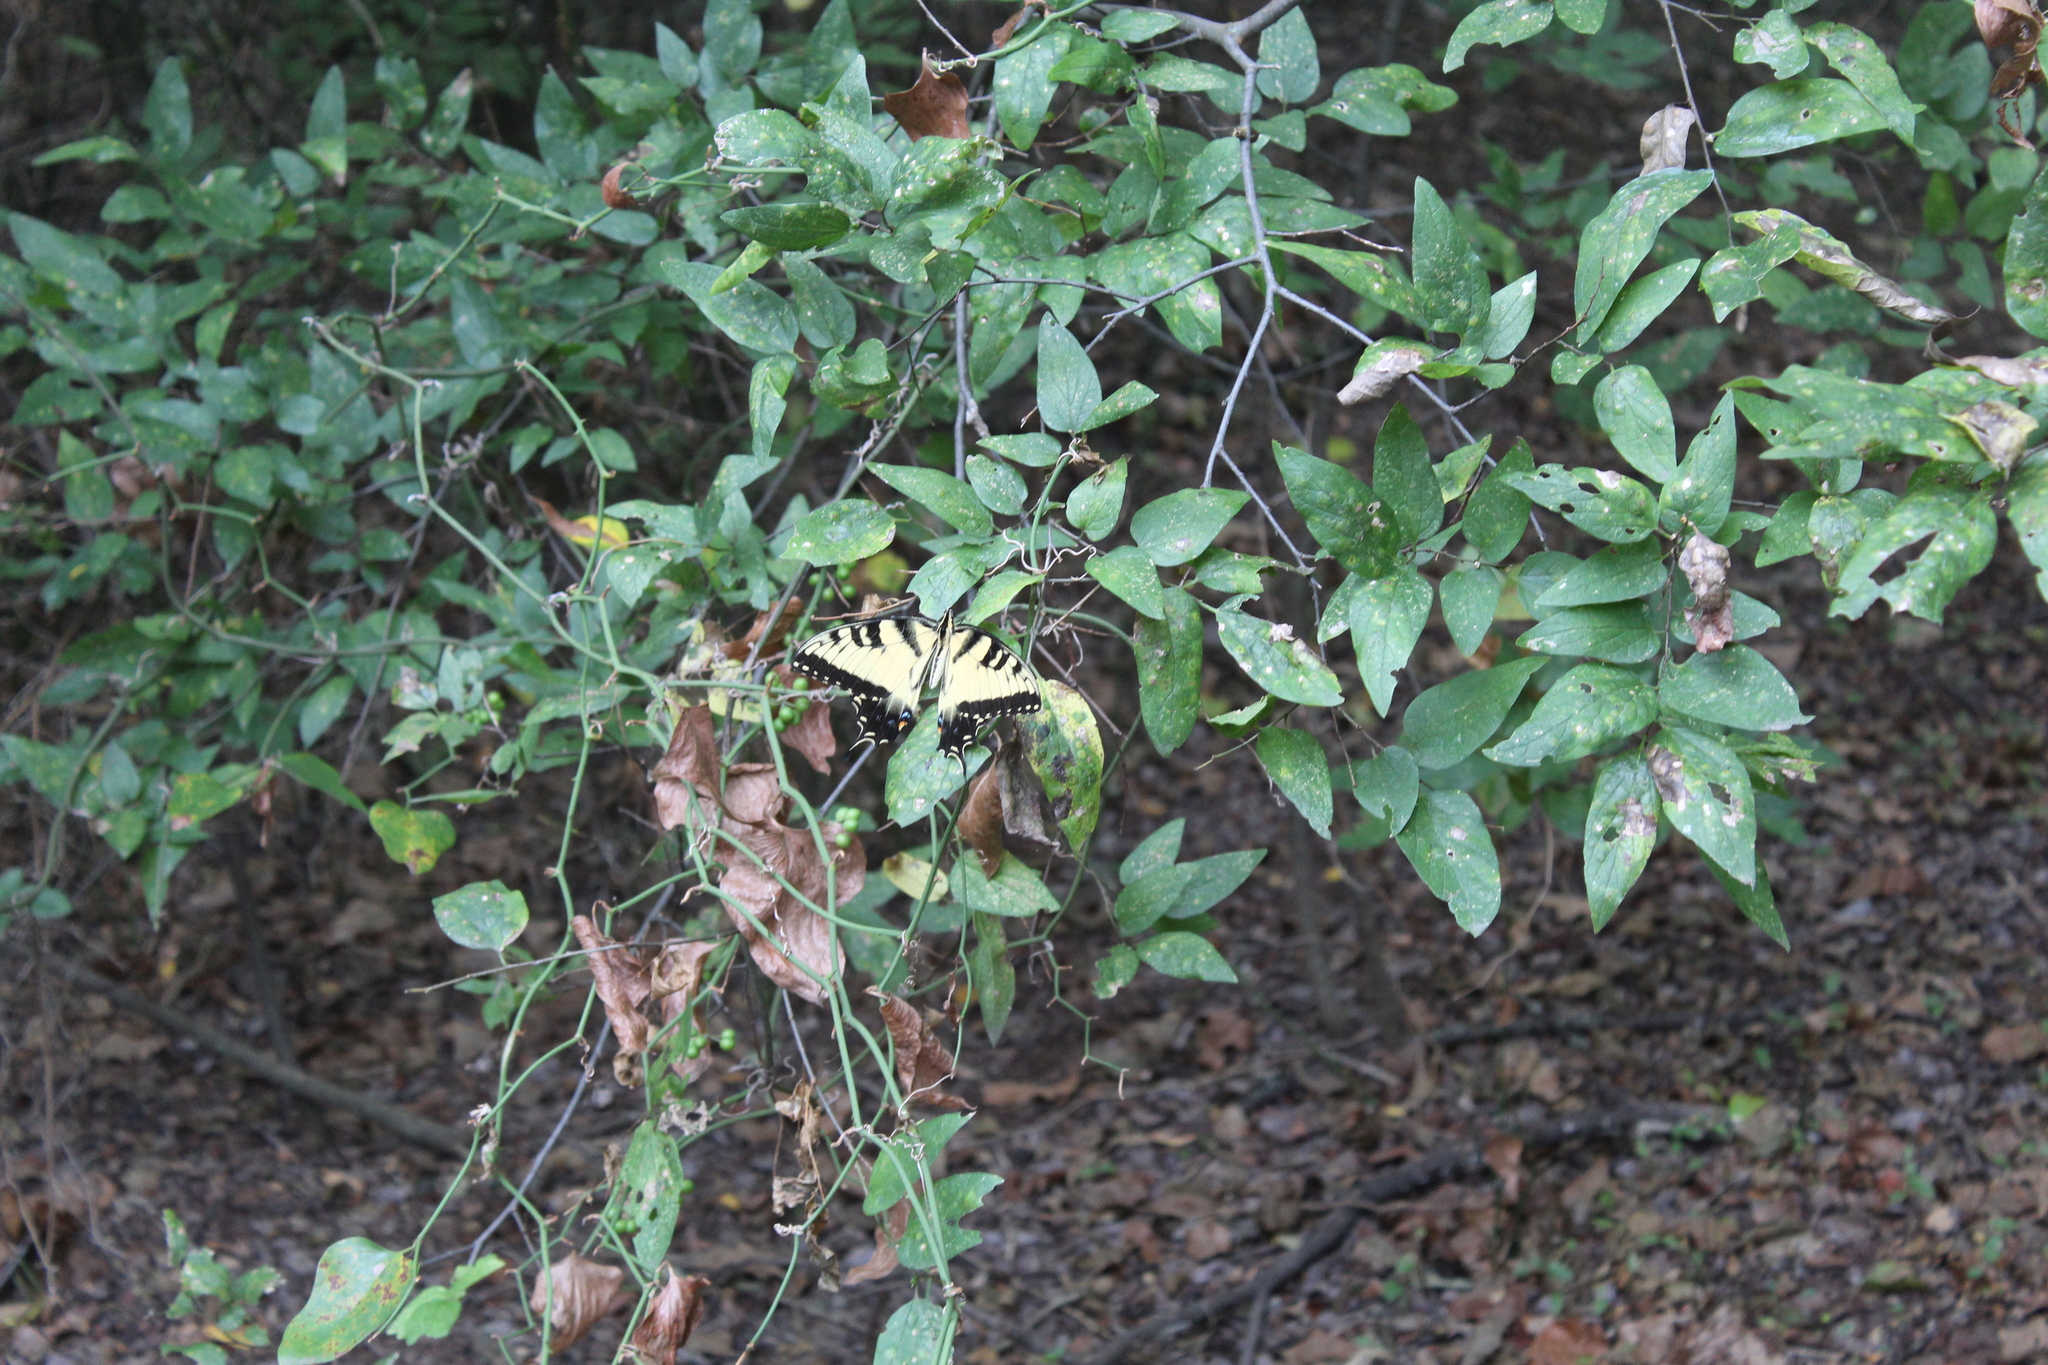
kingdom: Animalia
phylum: Arthropoda
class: Insecta
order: Lepidoptera
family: Papilionidae
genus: Papilio
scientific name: Papilio glaucus
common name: Tiger swallowtail
